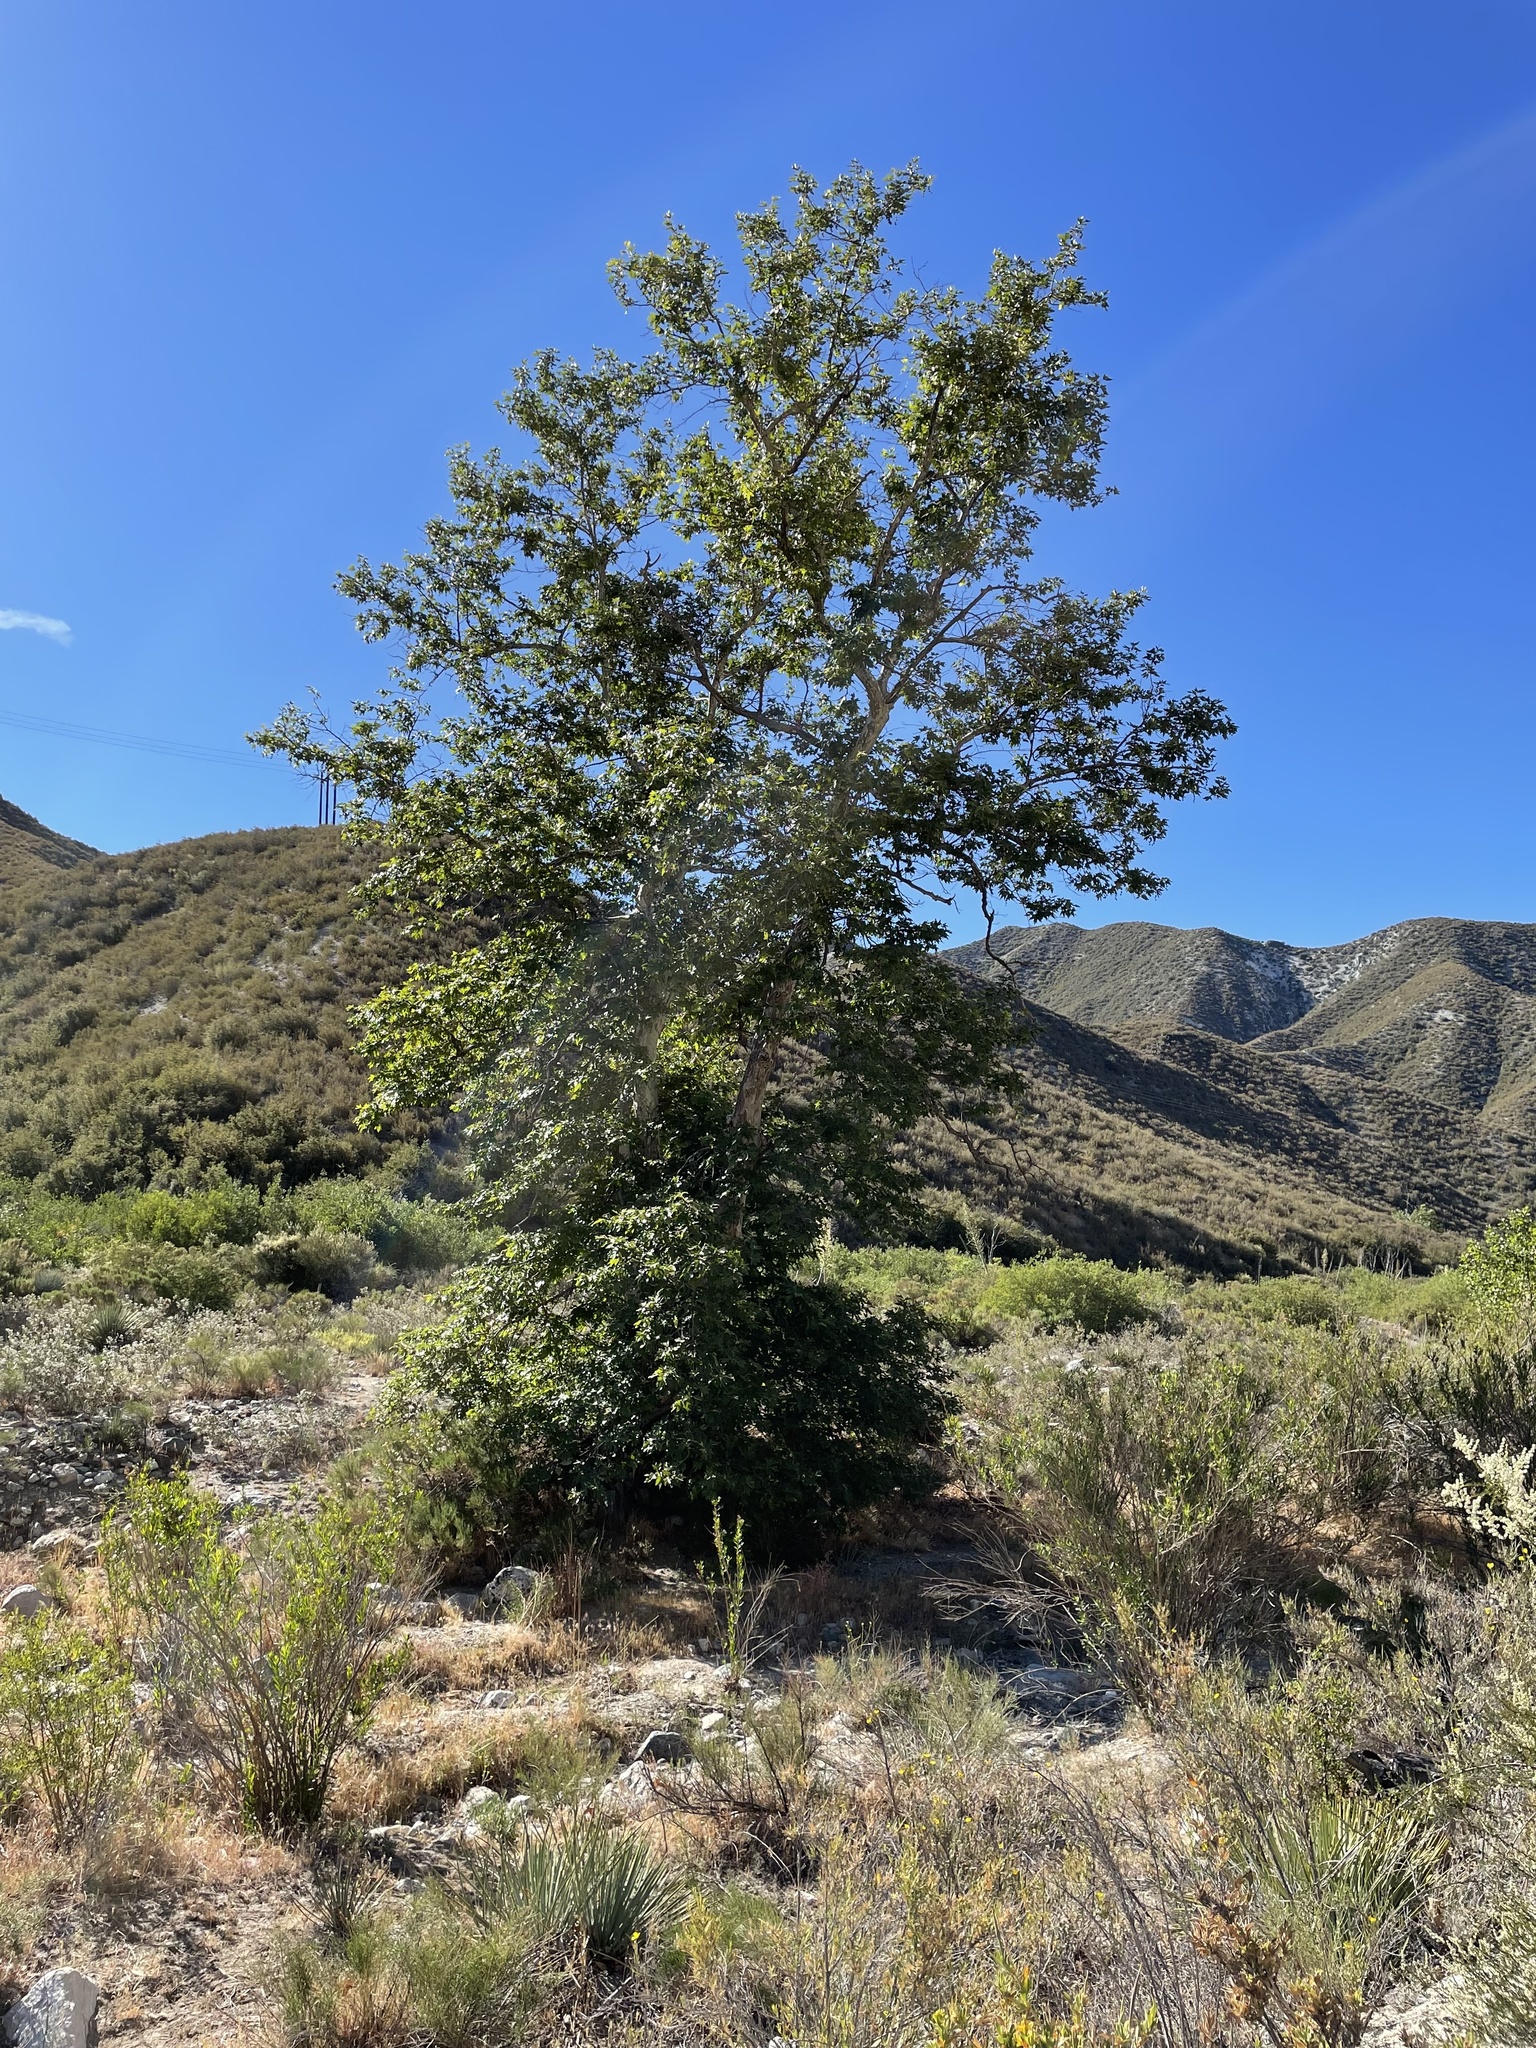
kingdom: Plantae
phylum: Tracheophyta
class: Magnoliopsida
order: Proteales
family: Platanaceae
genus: Platanus
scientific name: Platanus racemosa
